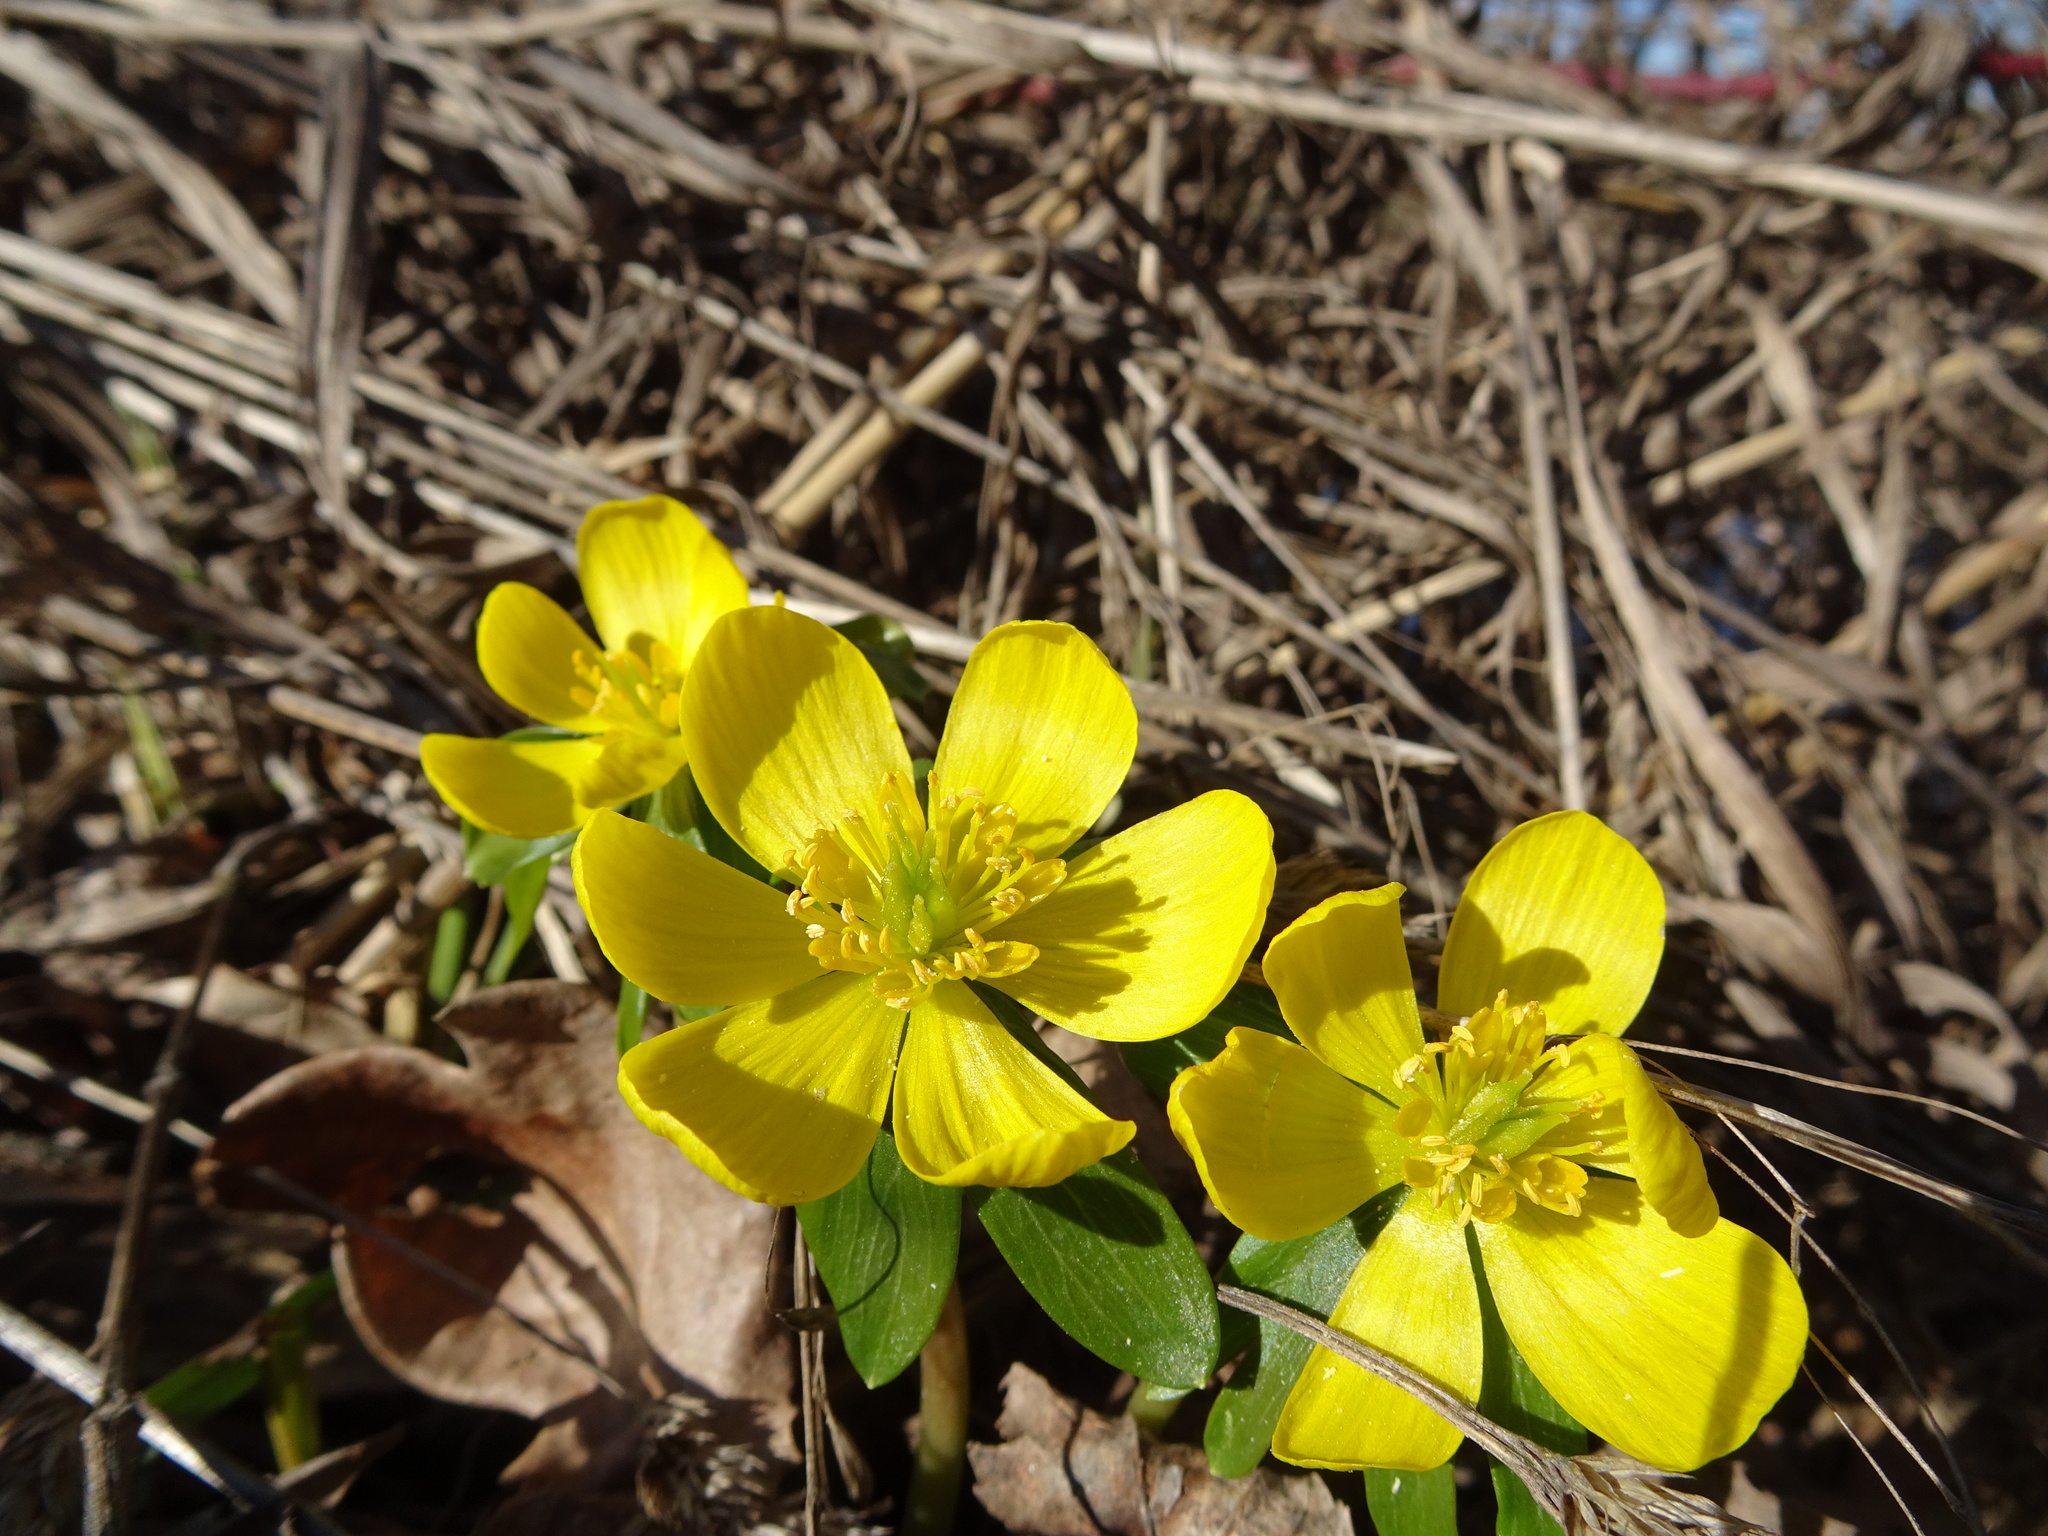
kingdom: Plantae
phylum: Tracheophyta
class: Magnoliopsida
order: Ranunculales
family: Ranunculaceae
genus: Eranthis
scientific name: Eranthis hyemalis
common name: Winter aconite
